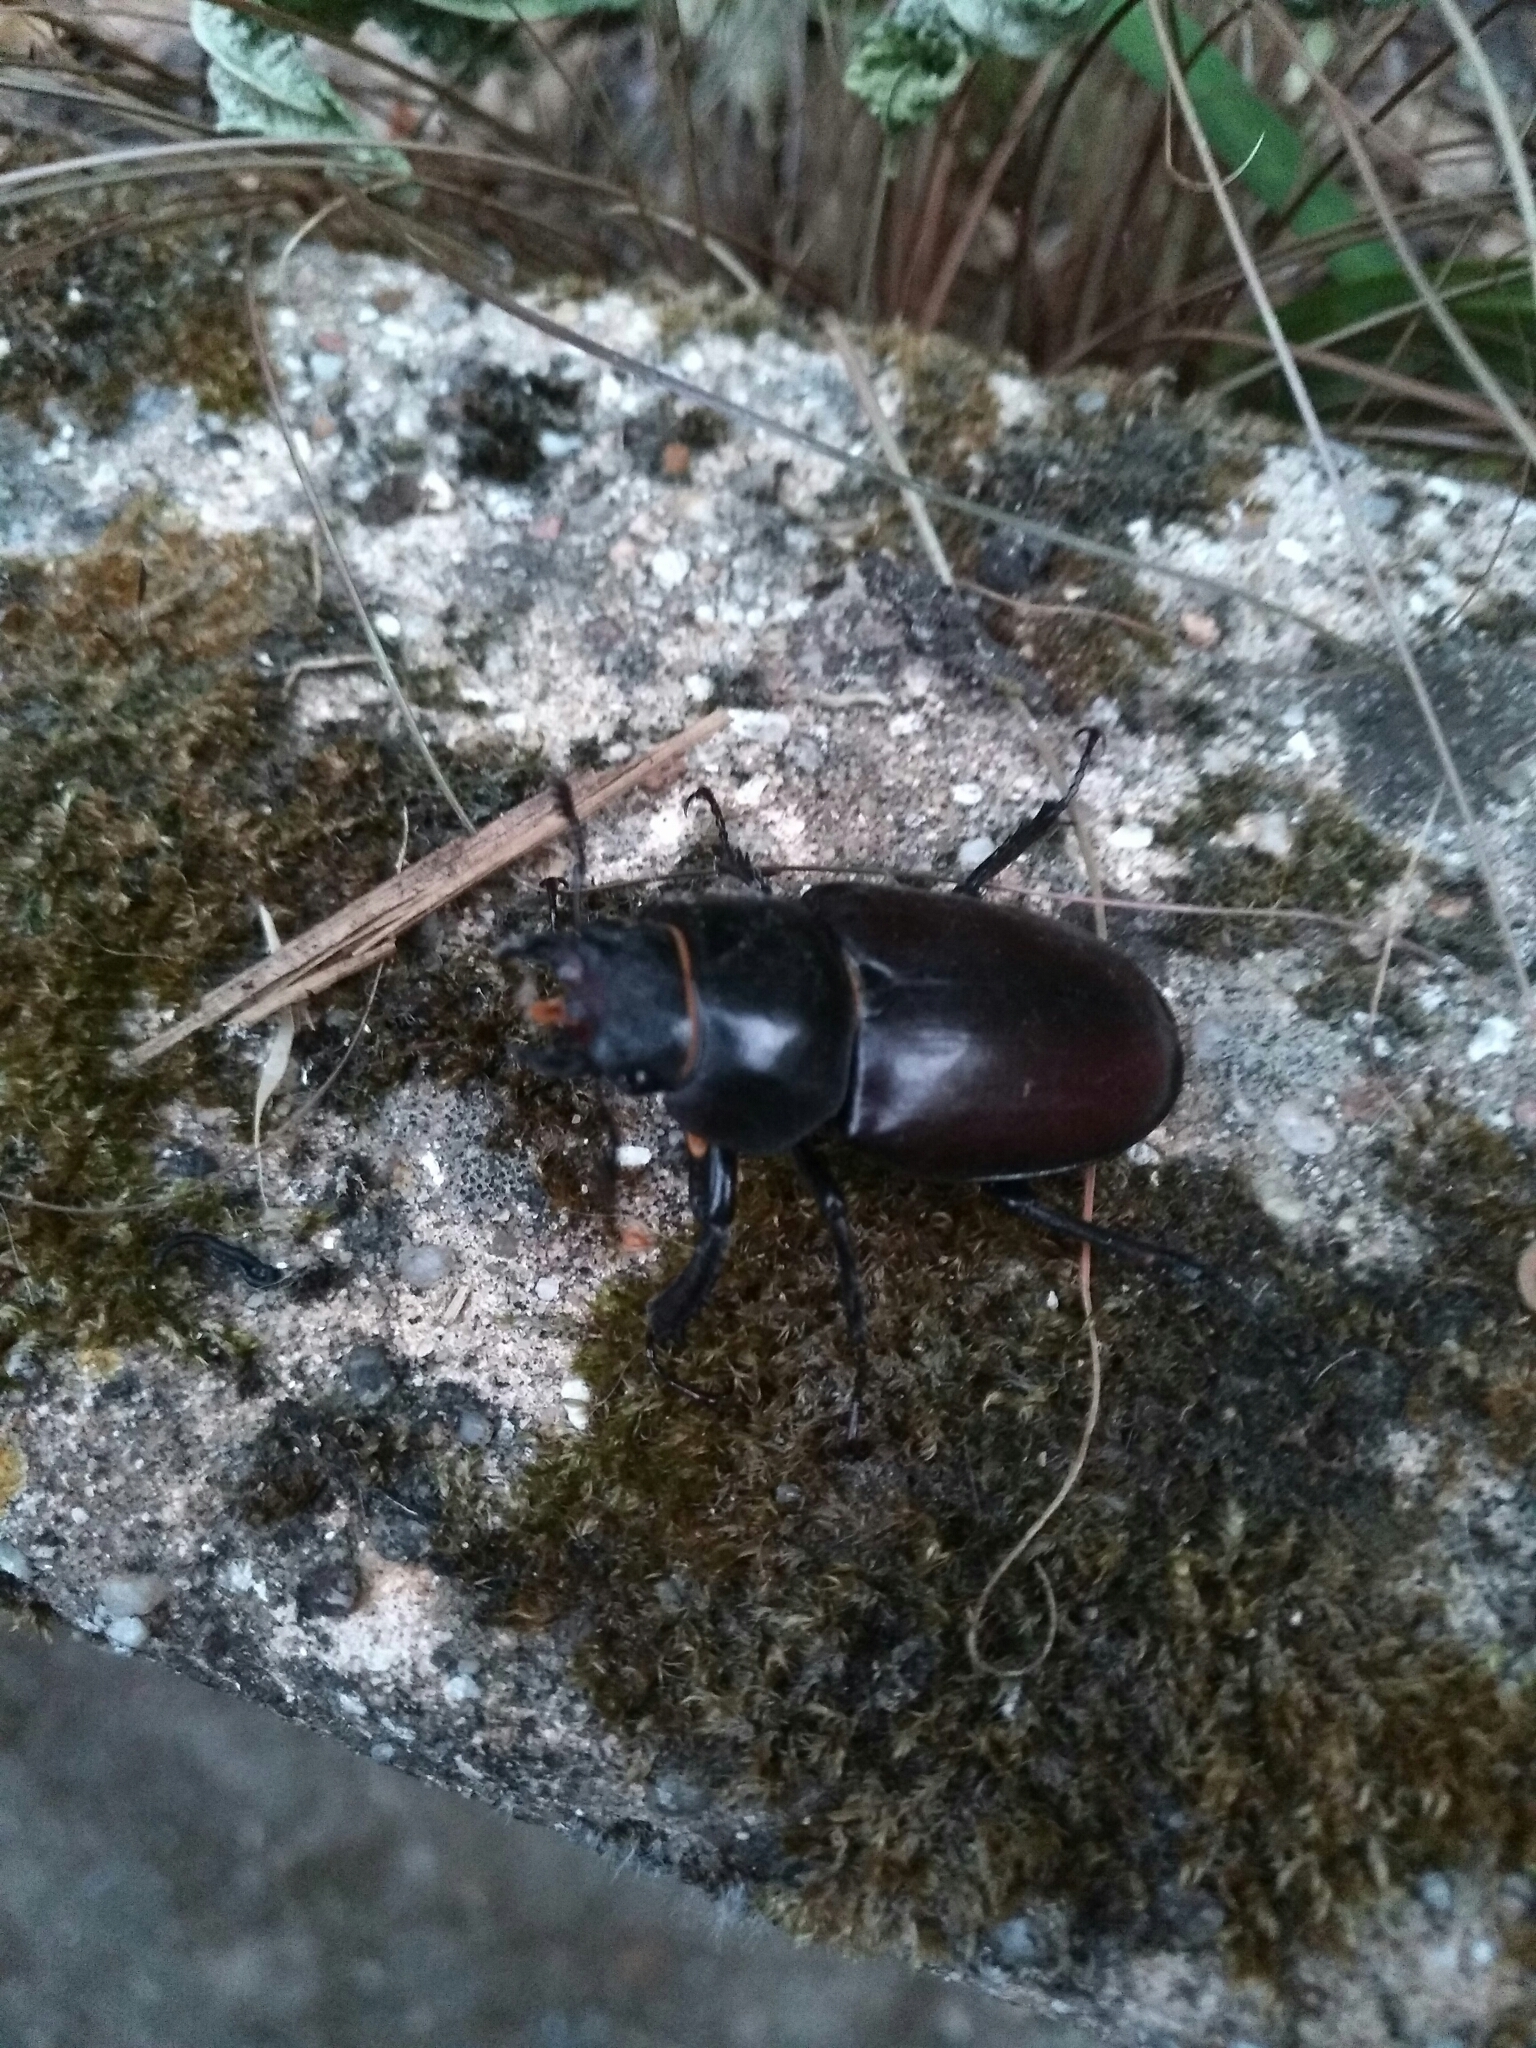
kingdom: Animalia
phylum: Arthropoda
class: Insecta
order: Coleoptera
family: Lucanidae
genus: Lucanus
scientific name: Lucanus cervus
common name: Stag beetle
